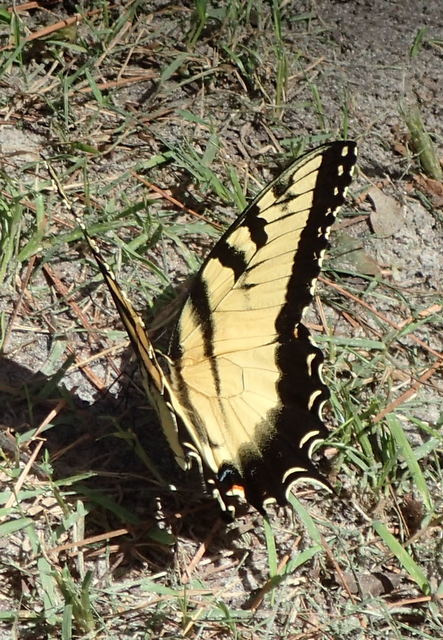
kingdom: Animalia
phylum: Arthropoda
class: Insecta
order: Lepidoptera
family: Papilionidae
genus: Papilio
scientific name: Papilio glaucus
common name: Tiger swallowtail
